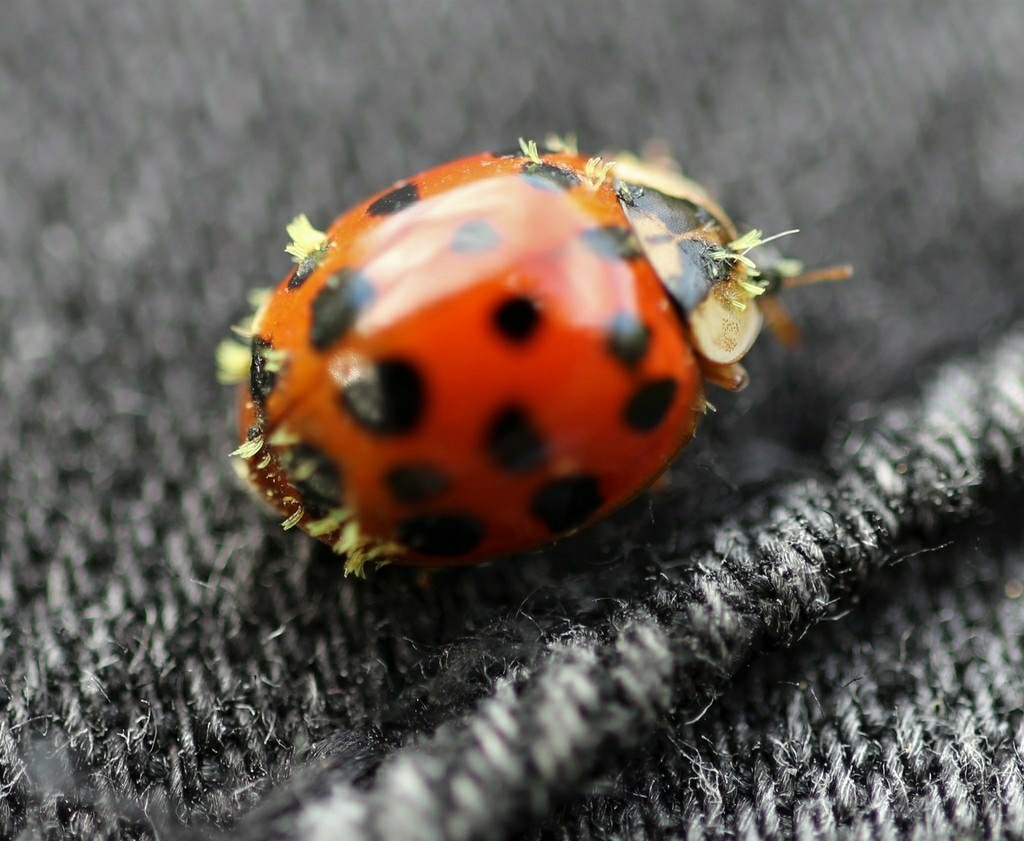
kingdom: Fungi
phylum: Ascomycota
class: Laboulbeniomycetes
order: Laboulbeniales
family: Laboulbeniaceae
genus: Hesperomyces
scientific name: Hesperomyces harmoniae
